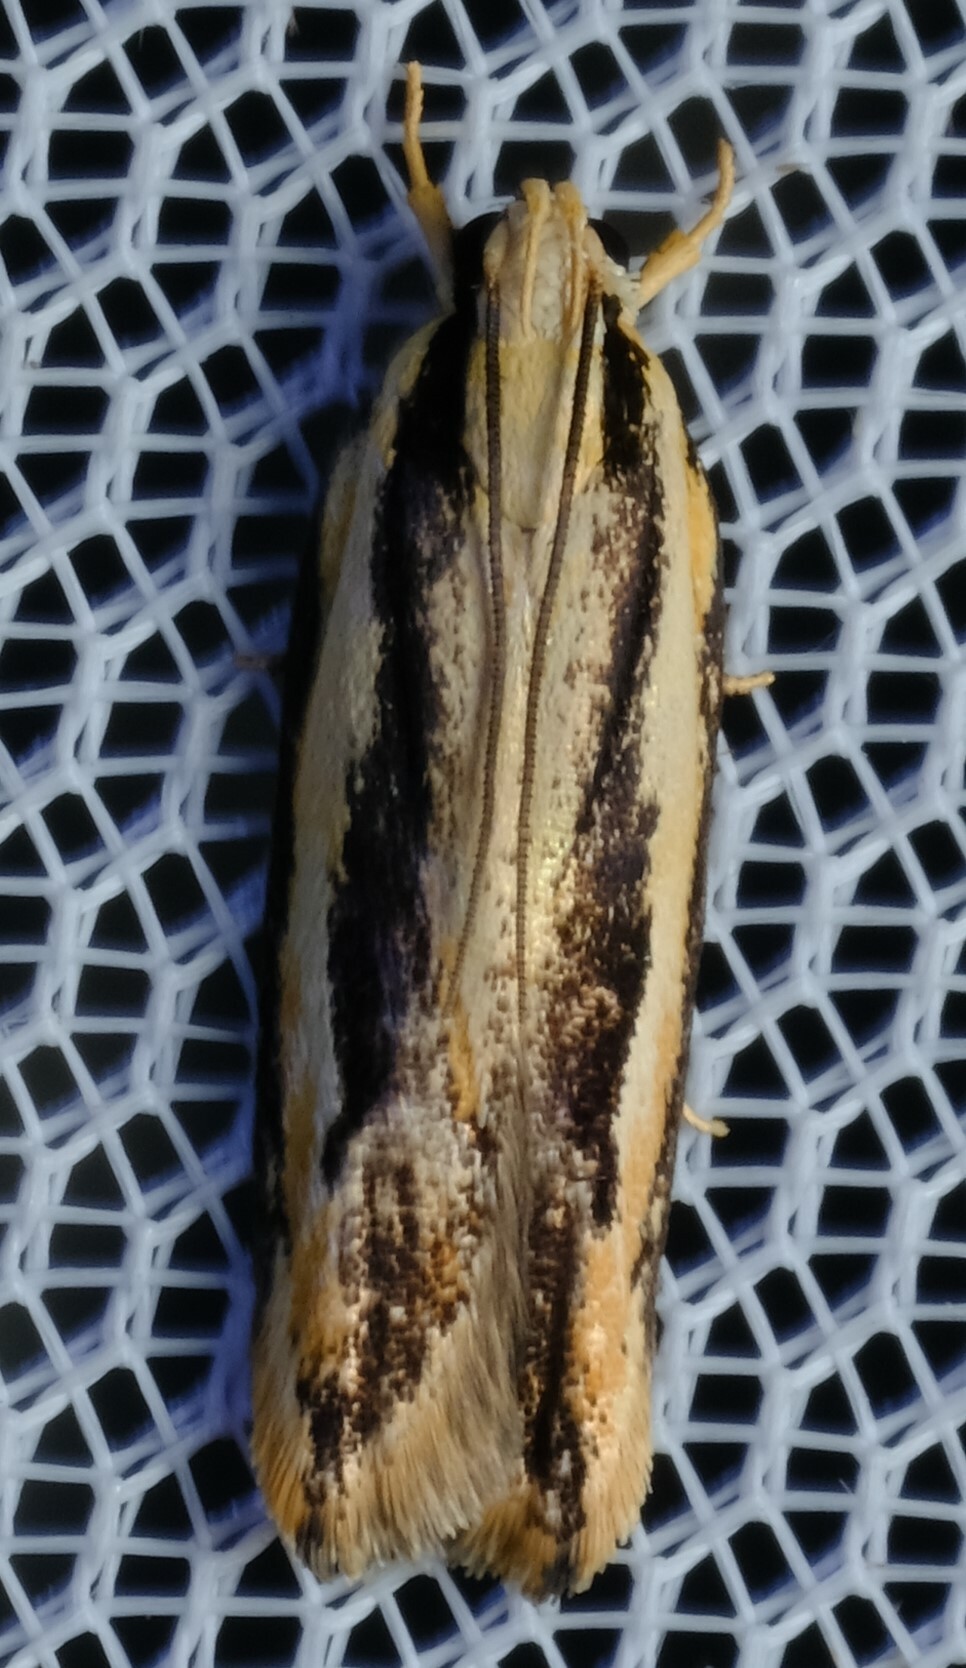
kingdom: Animalia
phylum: Arthropoda
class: Insecta
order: Lepidoptera
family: Gelechiidae
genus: Ardozyga
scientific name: Ardozyga bistrigata
